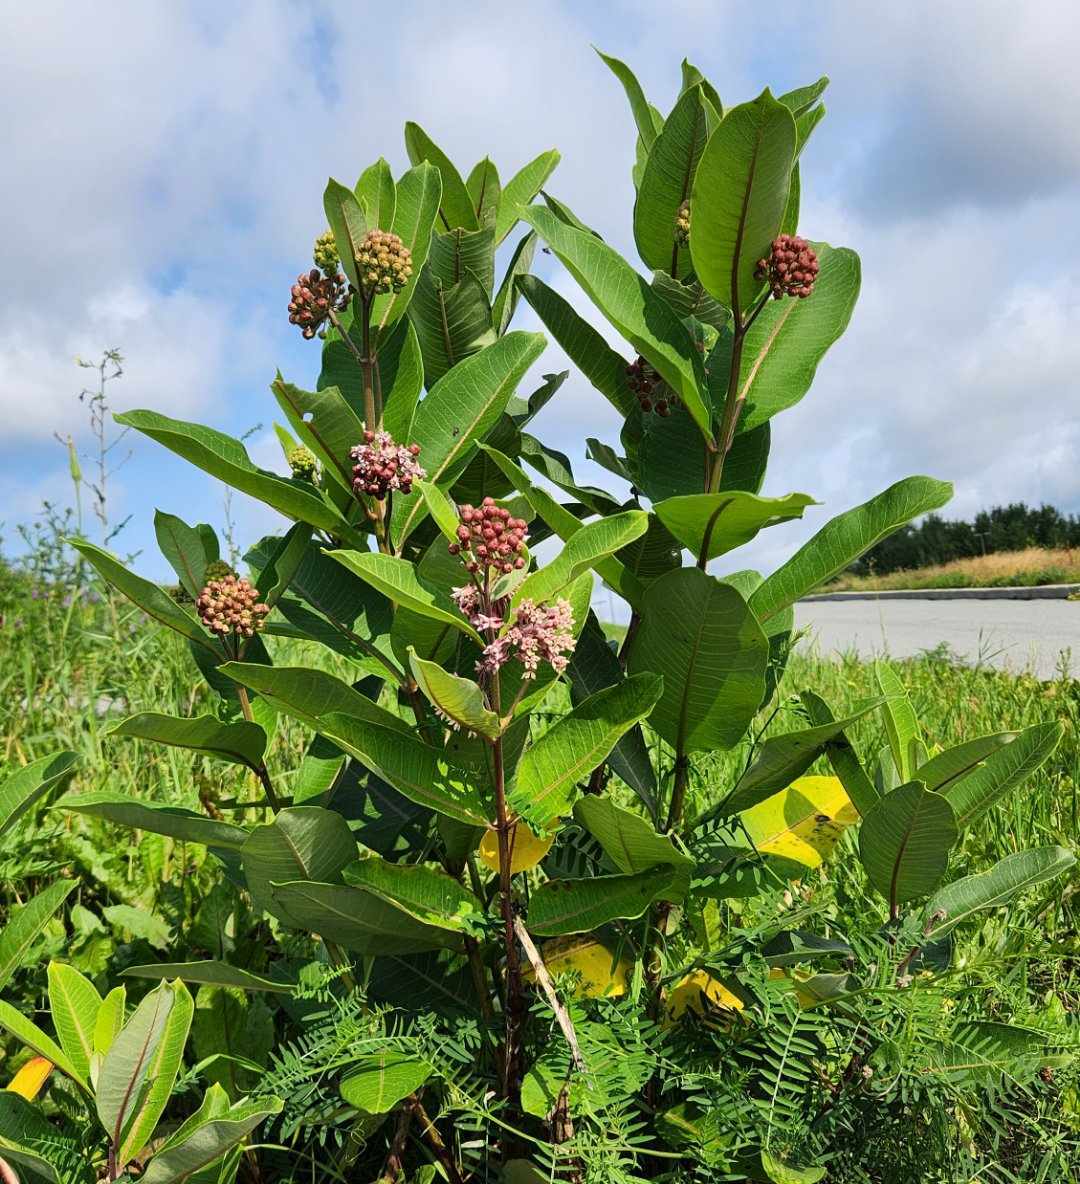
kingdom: Plantae
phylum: Tracheophyta
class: Magnoliopsida
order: Gentianales
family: Apocynaceae
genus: Asclepias
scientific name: Asclepias syriaca
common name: Common milkweed
